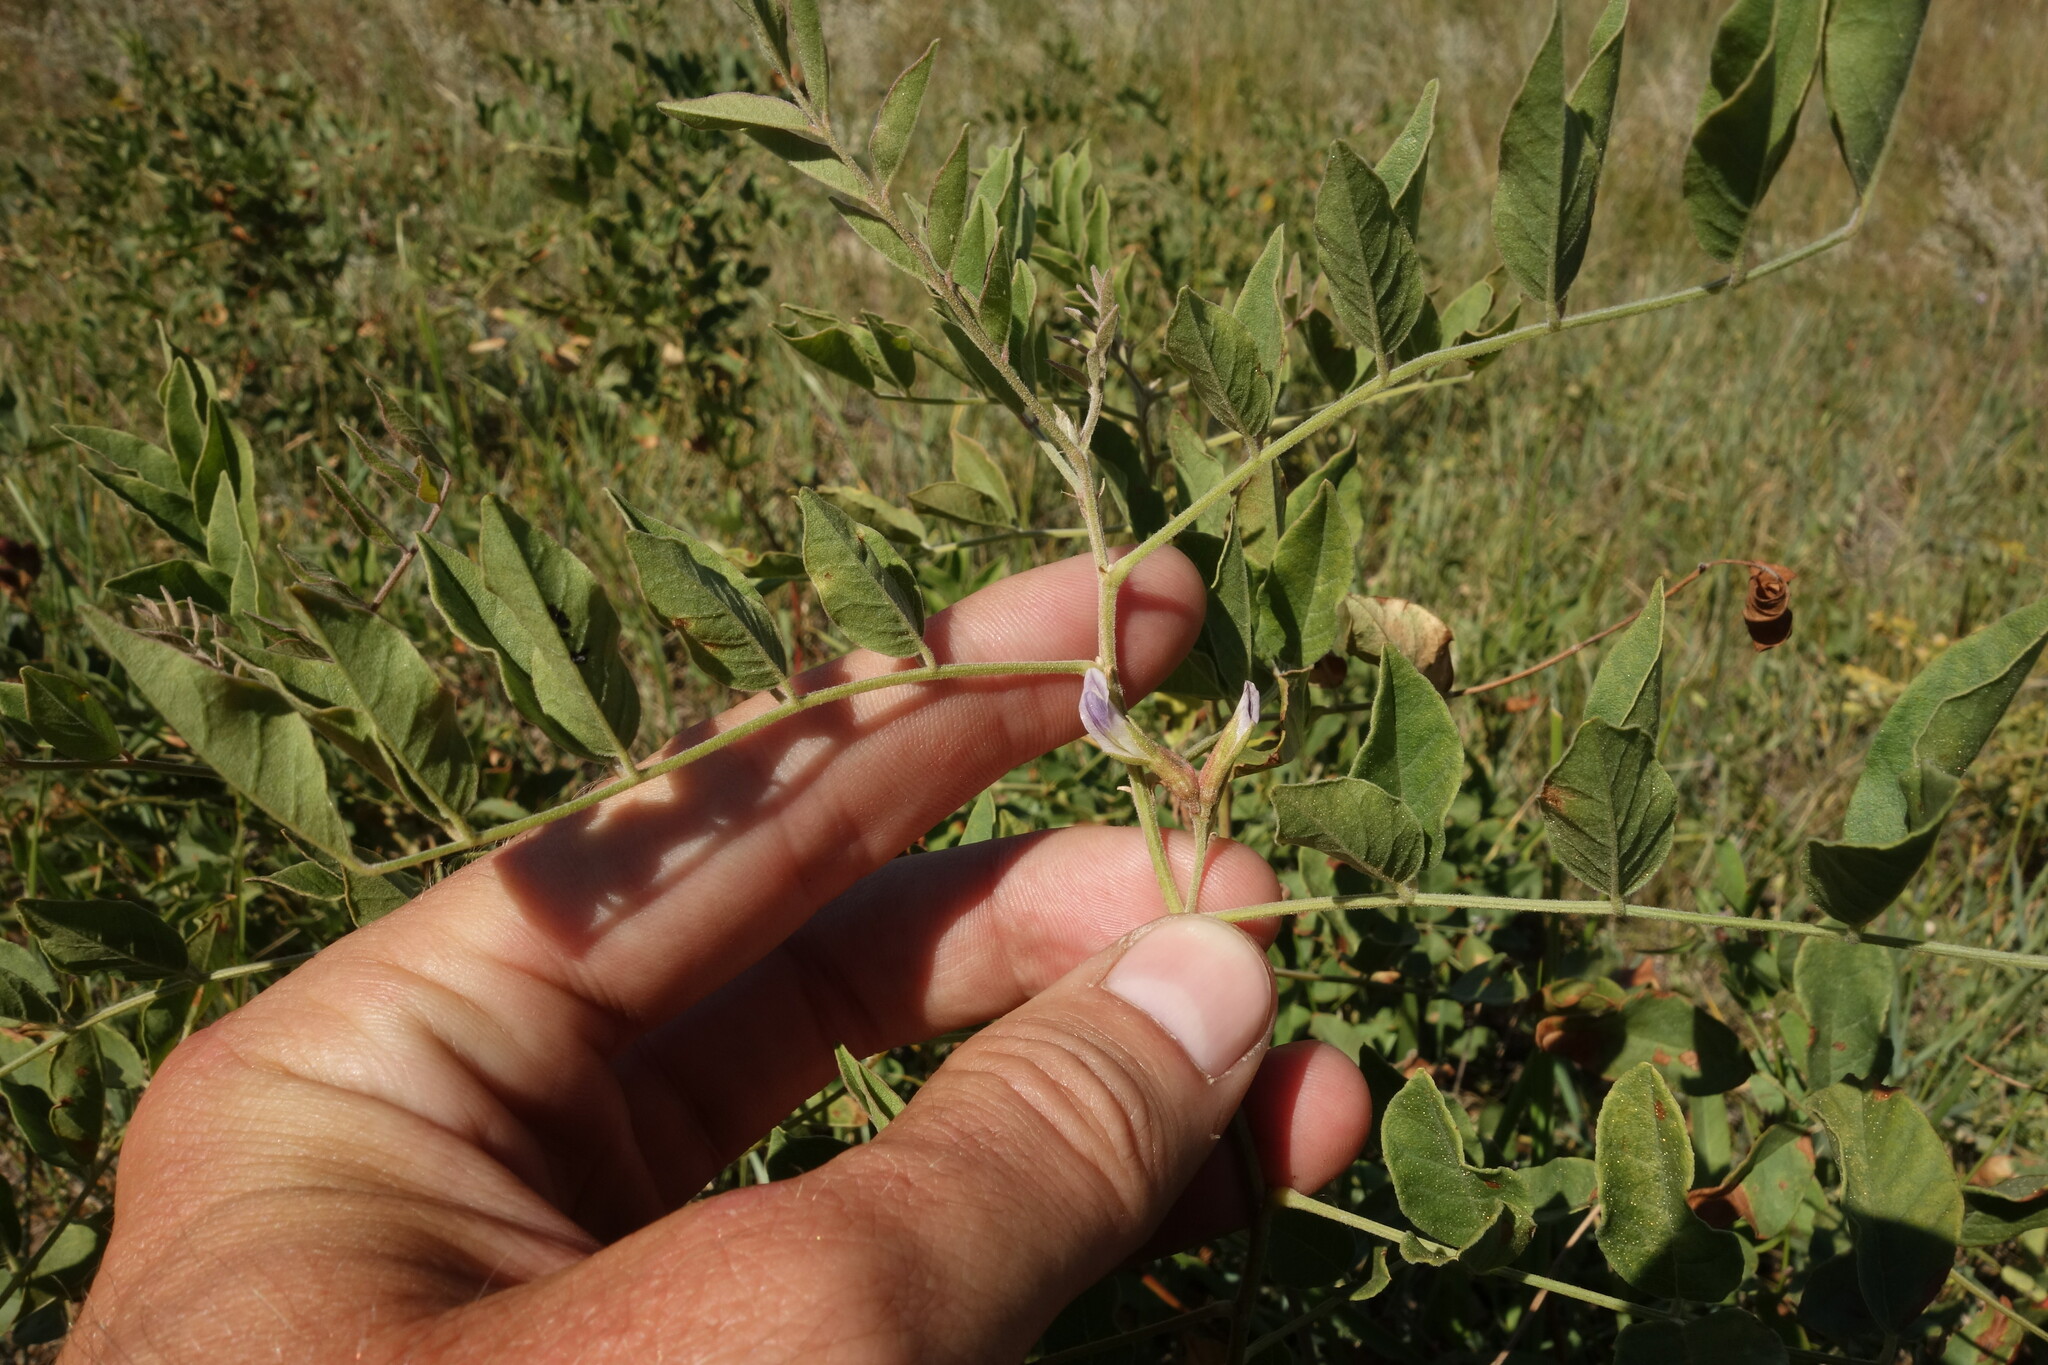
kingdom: Plantae
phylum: Tracheophyta
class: Magnoliopsida
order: Fabales
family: Fabaceae
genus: Glycyrrhiza
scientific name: Glycyrrhiza uralensis
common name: Chinese licorice
